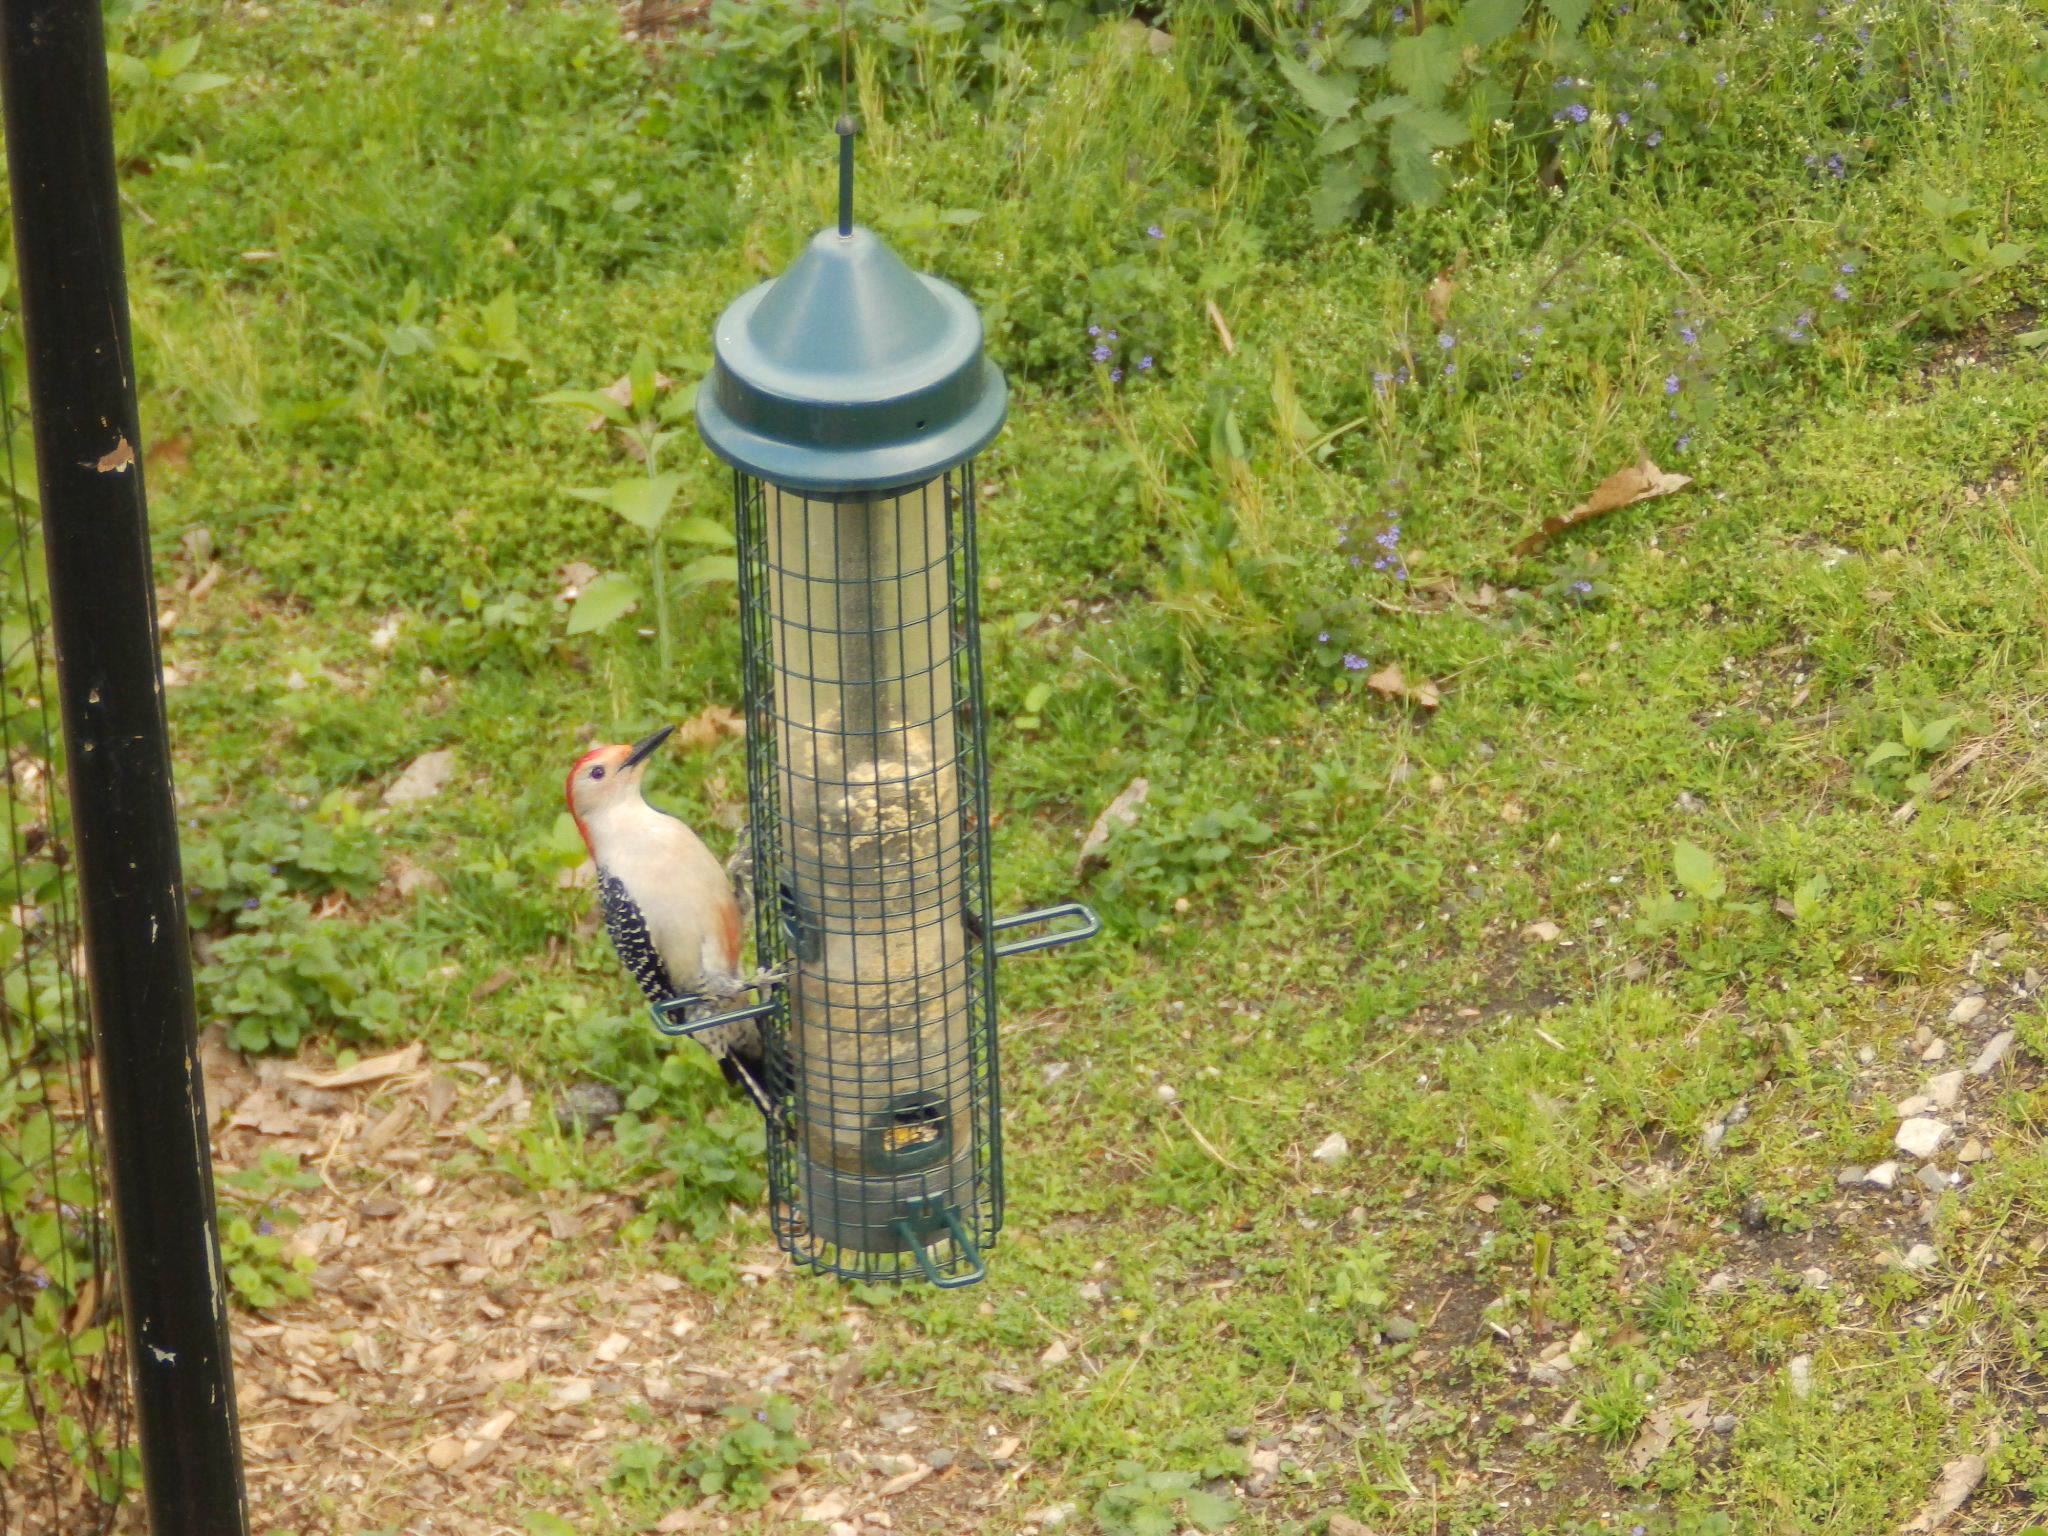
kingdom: Animalia
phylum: Chordata
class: Aves
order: Piciformes
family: Picidae
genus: Melanerpes
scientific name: Melanerpes carolinus
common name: Red-bellied woodpecker
